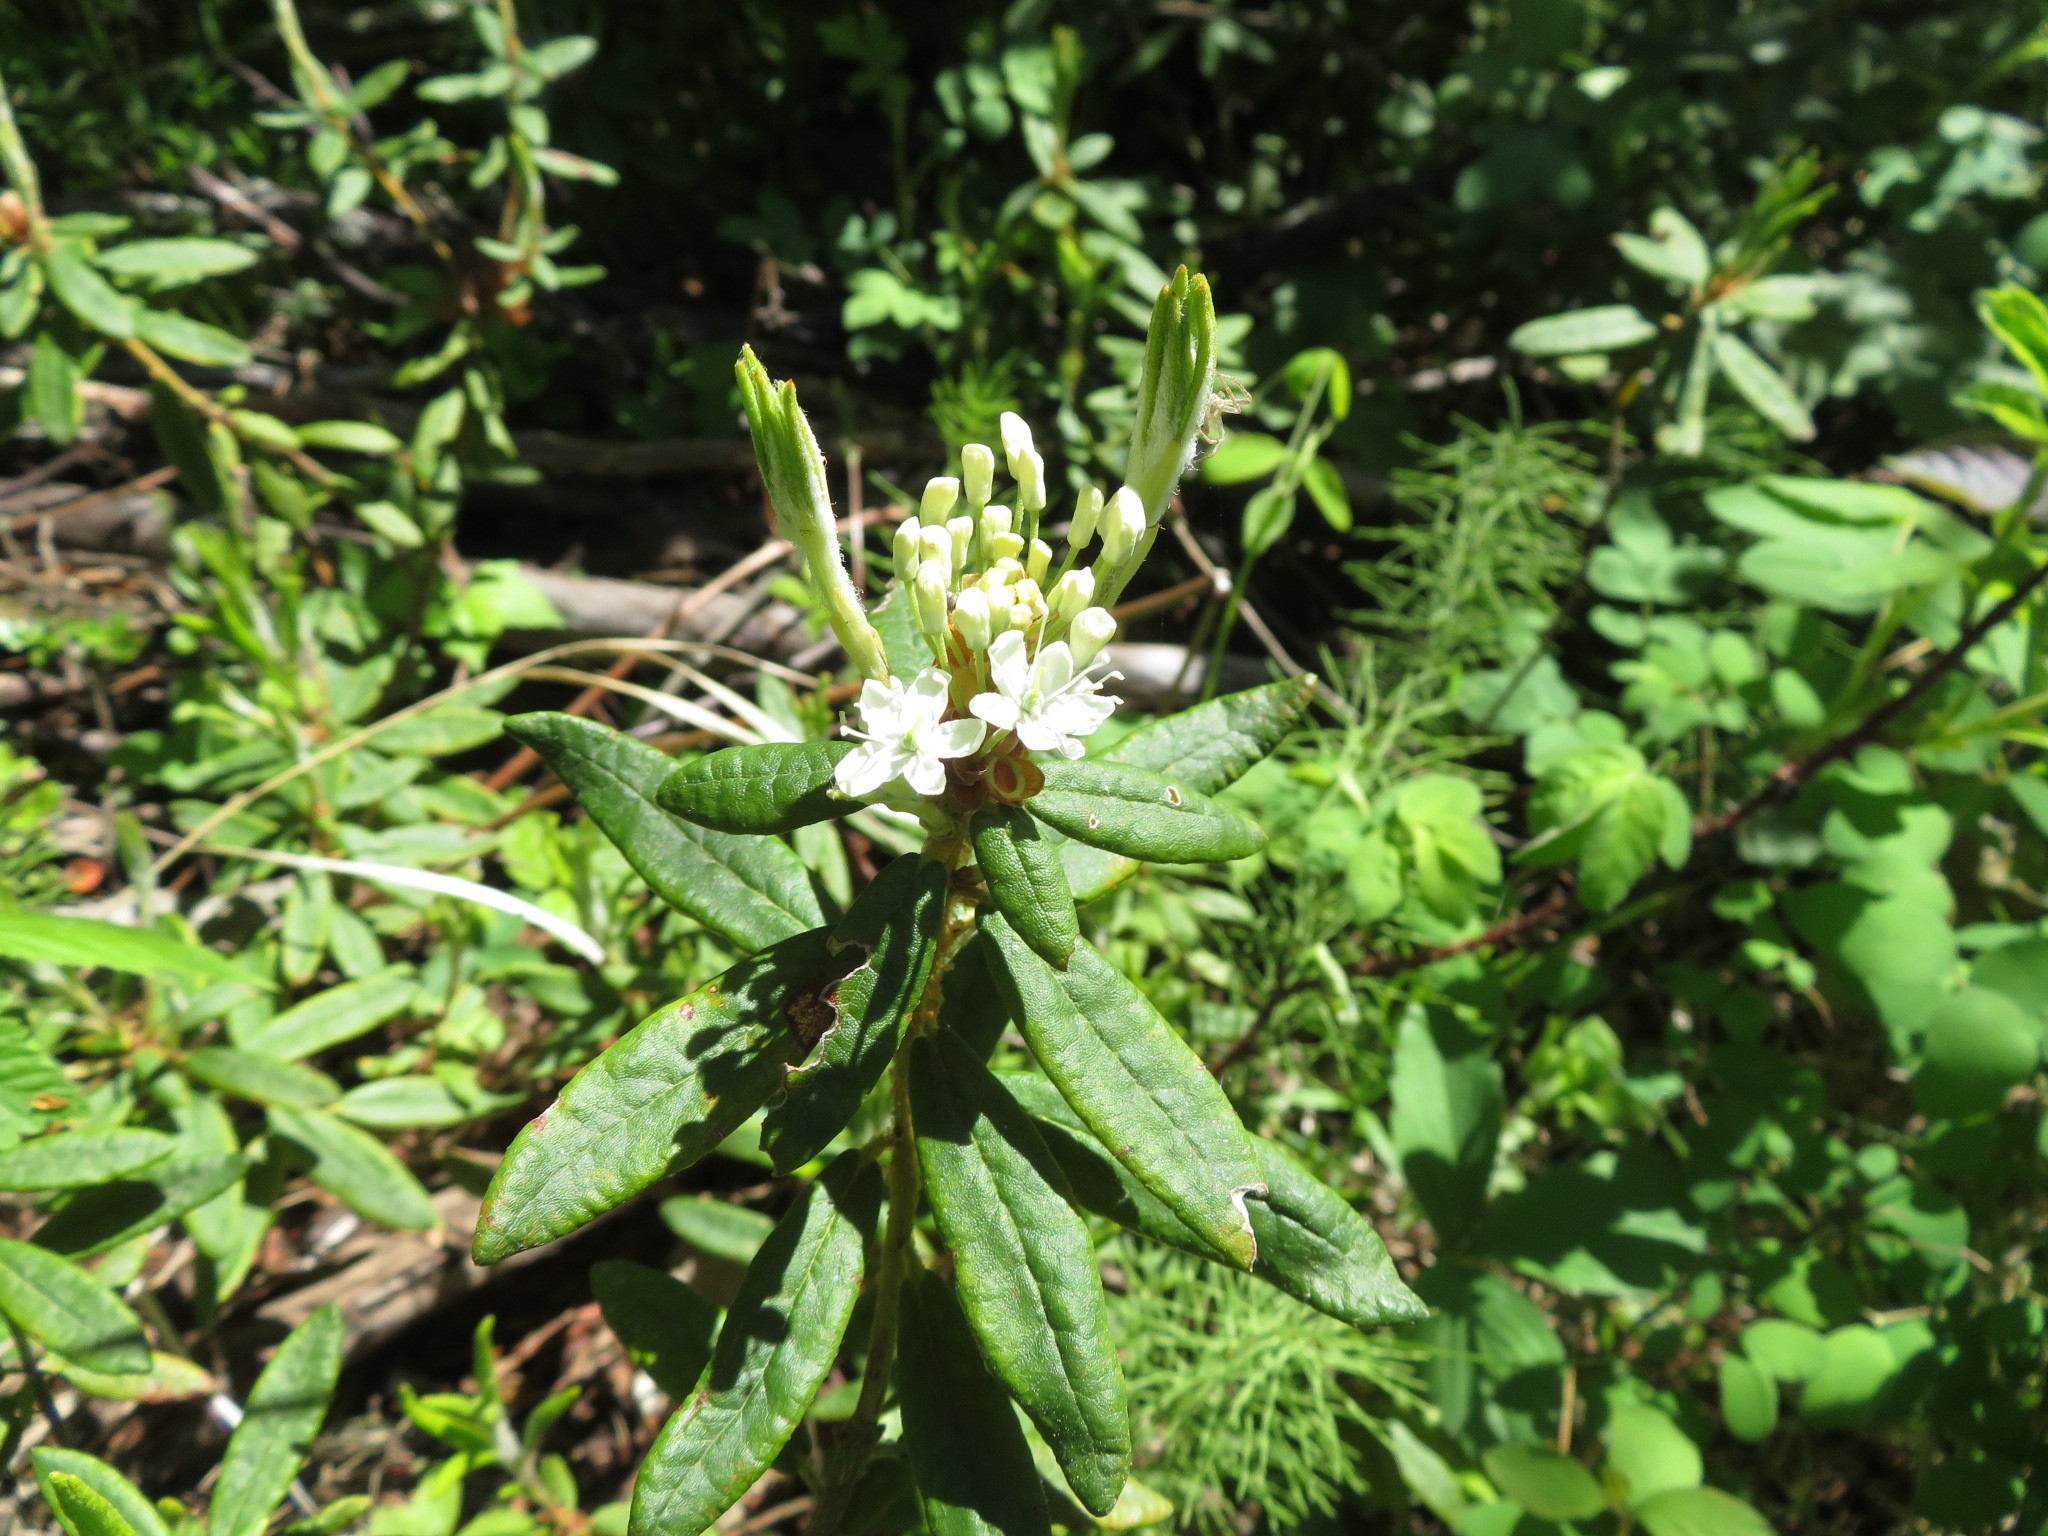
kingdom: Plantae
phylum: Tracheophyta
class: Magnoliopsida
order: Ericales
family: Ericaceae
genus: Rhododendron
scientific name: Rhododendron groenlandicum
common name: Bog labrador tea
